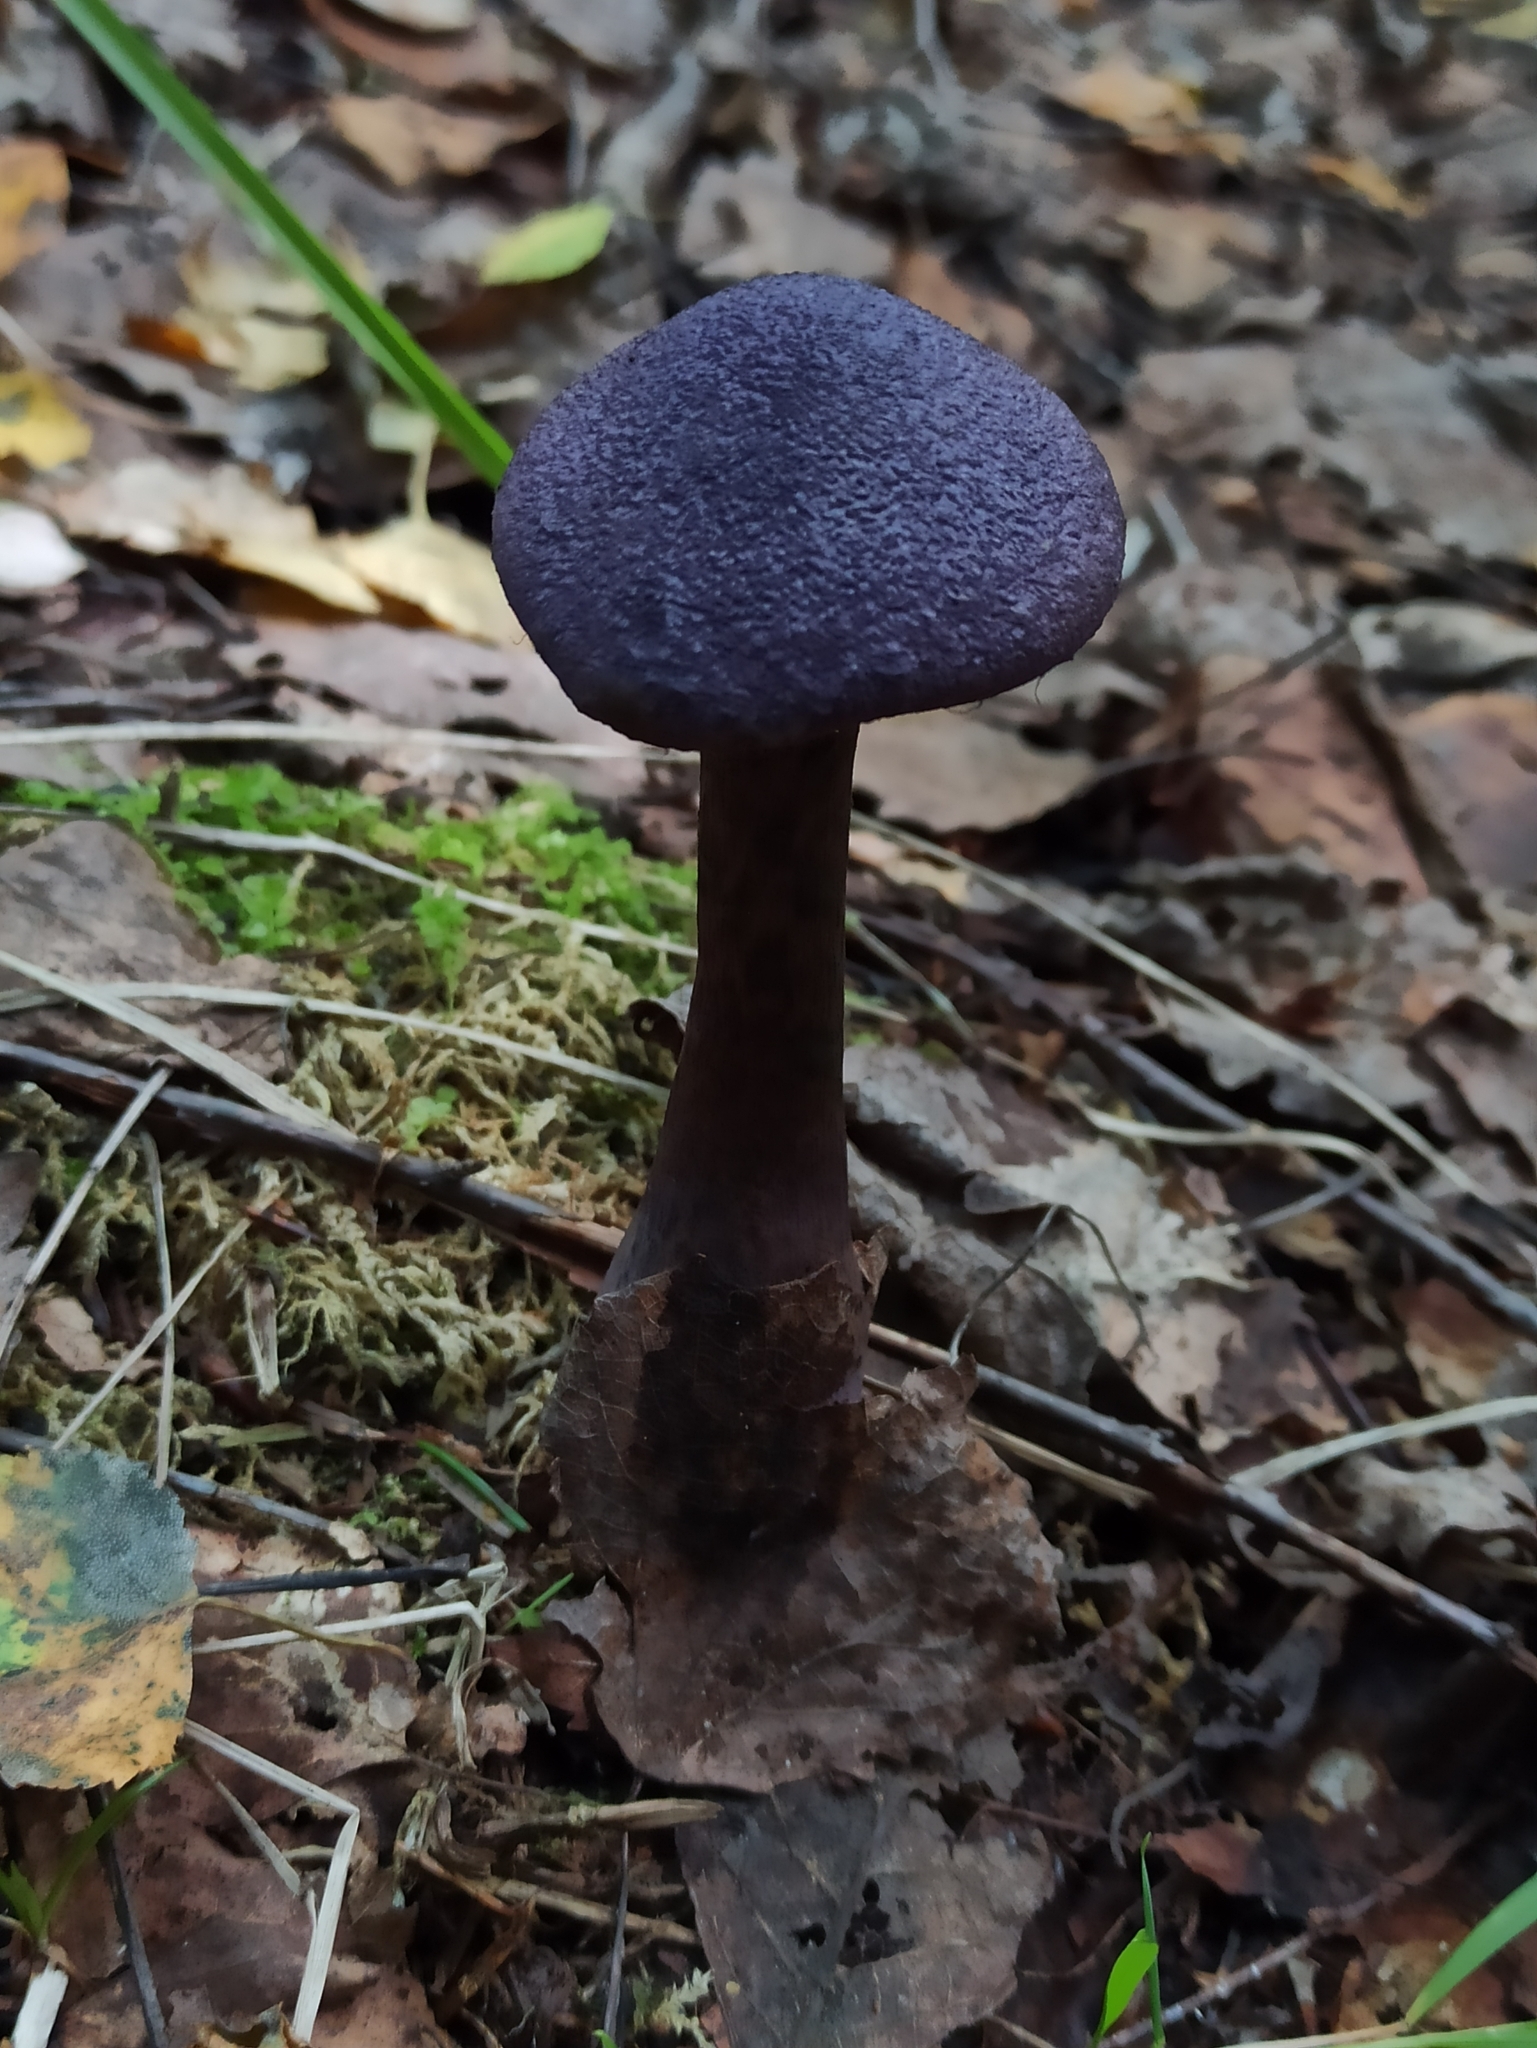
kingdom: Fungi
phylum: Basidiomycota
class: Agaricomycetes
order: Agaricales
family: Cortinariaceae
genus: Cortinarius
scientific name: Cortinarius violaceus
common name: Violet webcap
